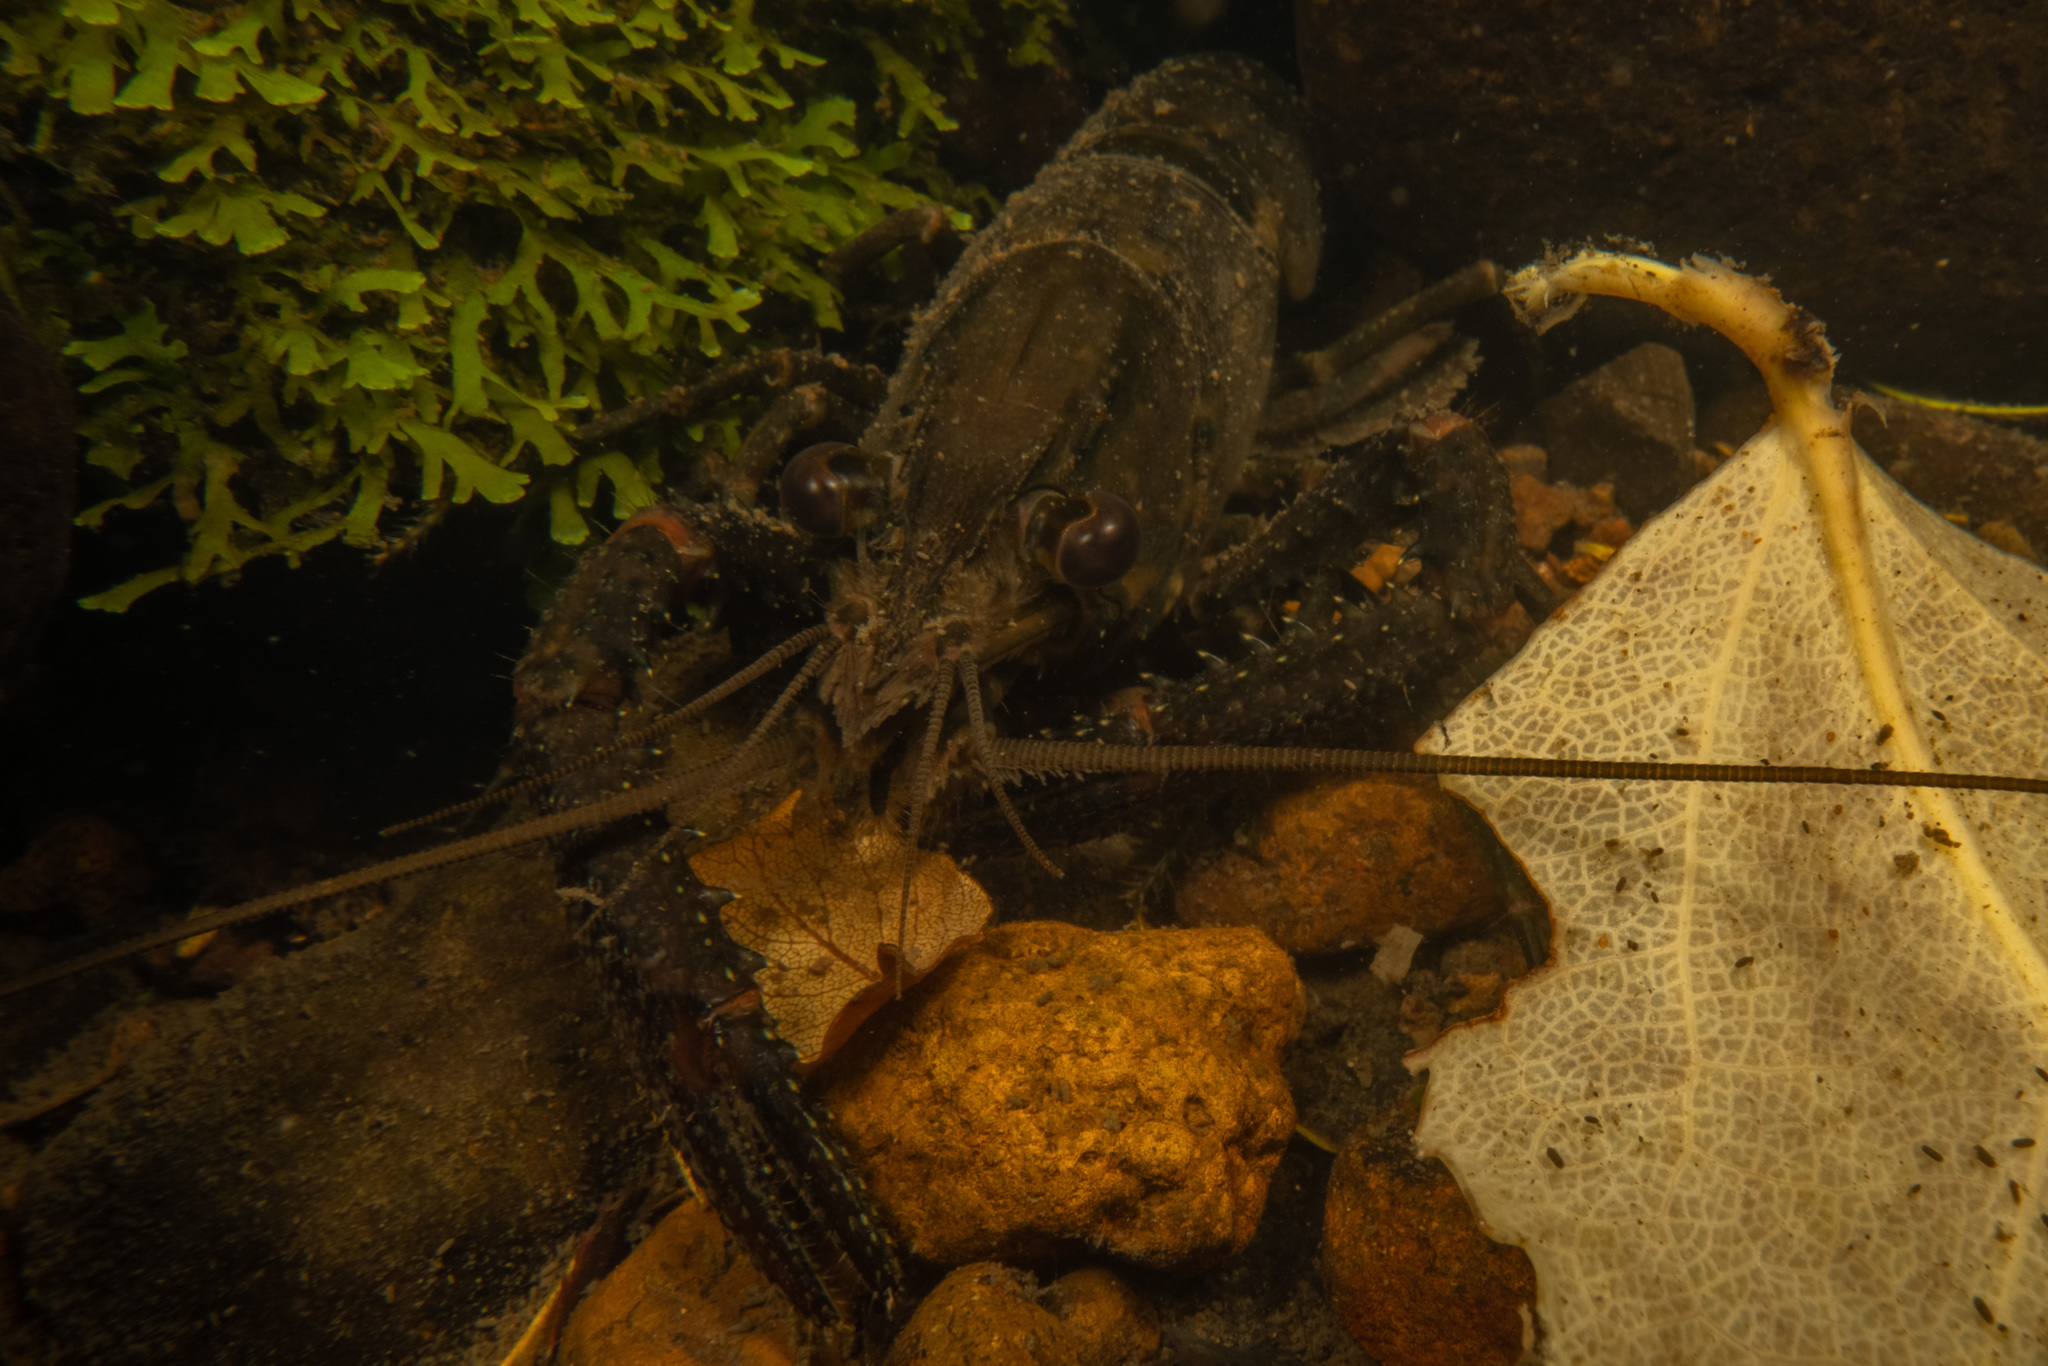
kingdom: Animalia
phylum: Arthropoda
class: Malacostraca
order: Decapoda
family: Parastacidae
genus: Paranephrops
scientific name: Paranephrops planifrons
